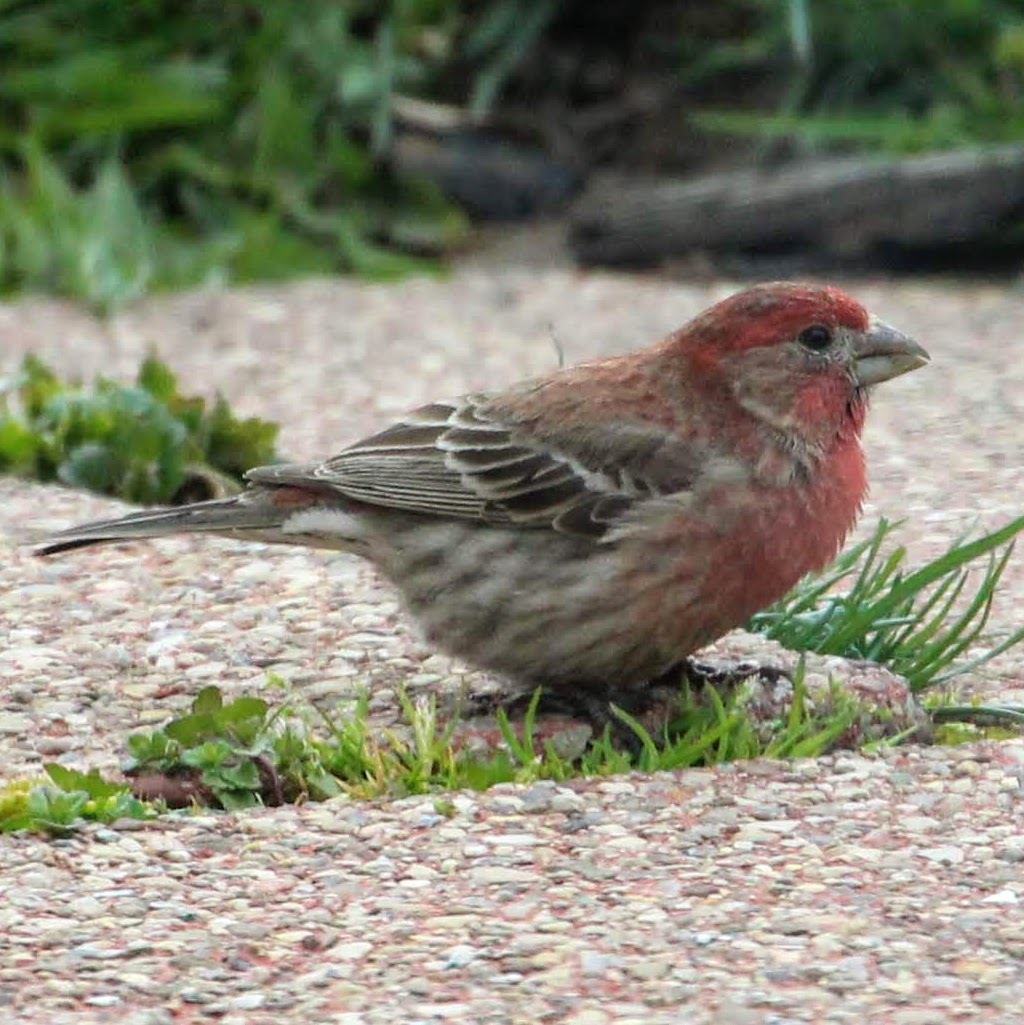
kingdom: Animalia
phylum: Chordata
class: Aves
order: Passeriformes
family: Fringillidae
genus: Haemorhous
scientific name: Haemorhous mexicanus
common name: House finch
